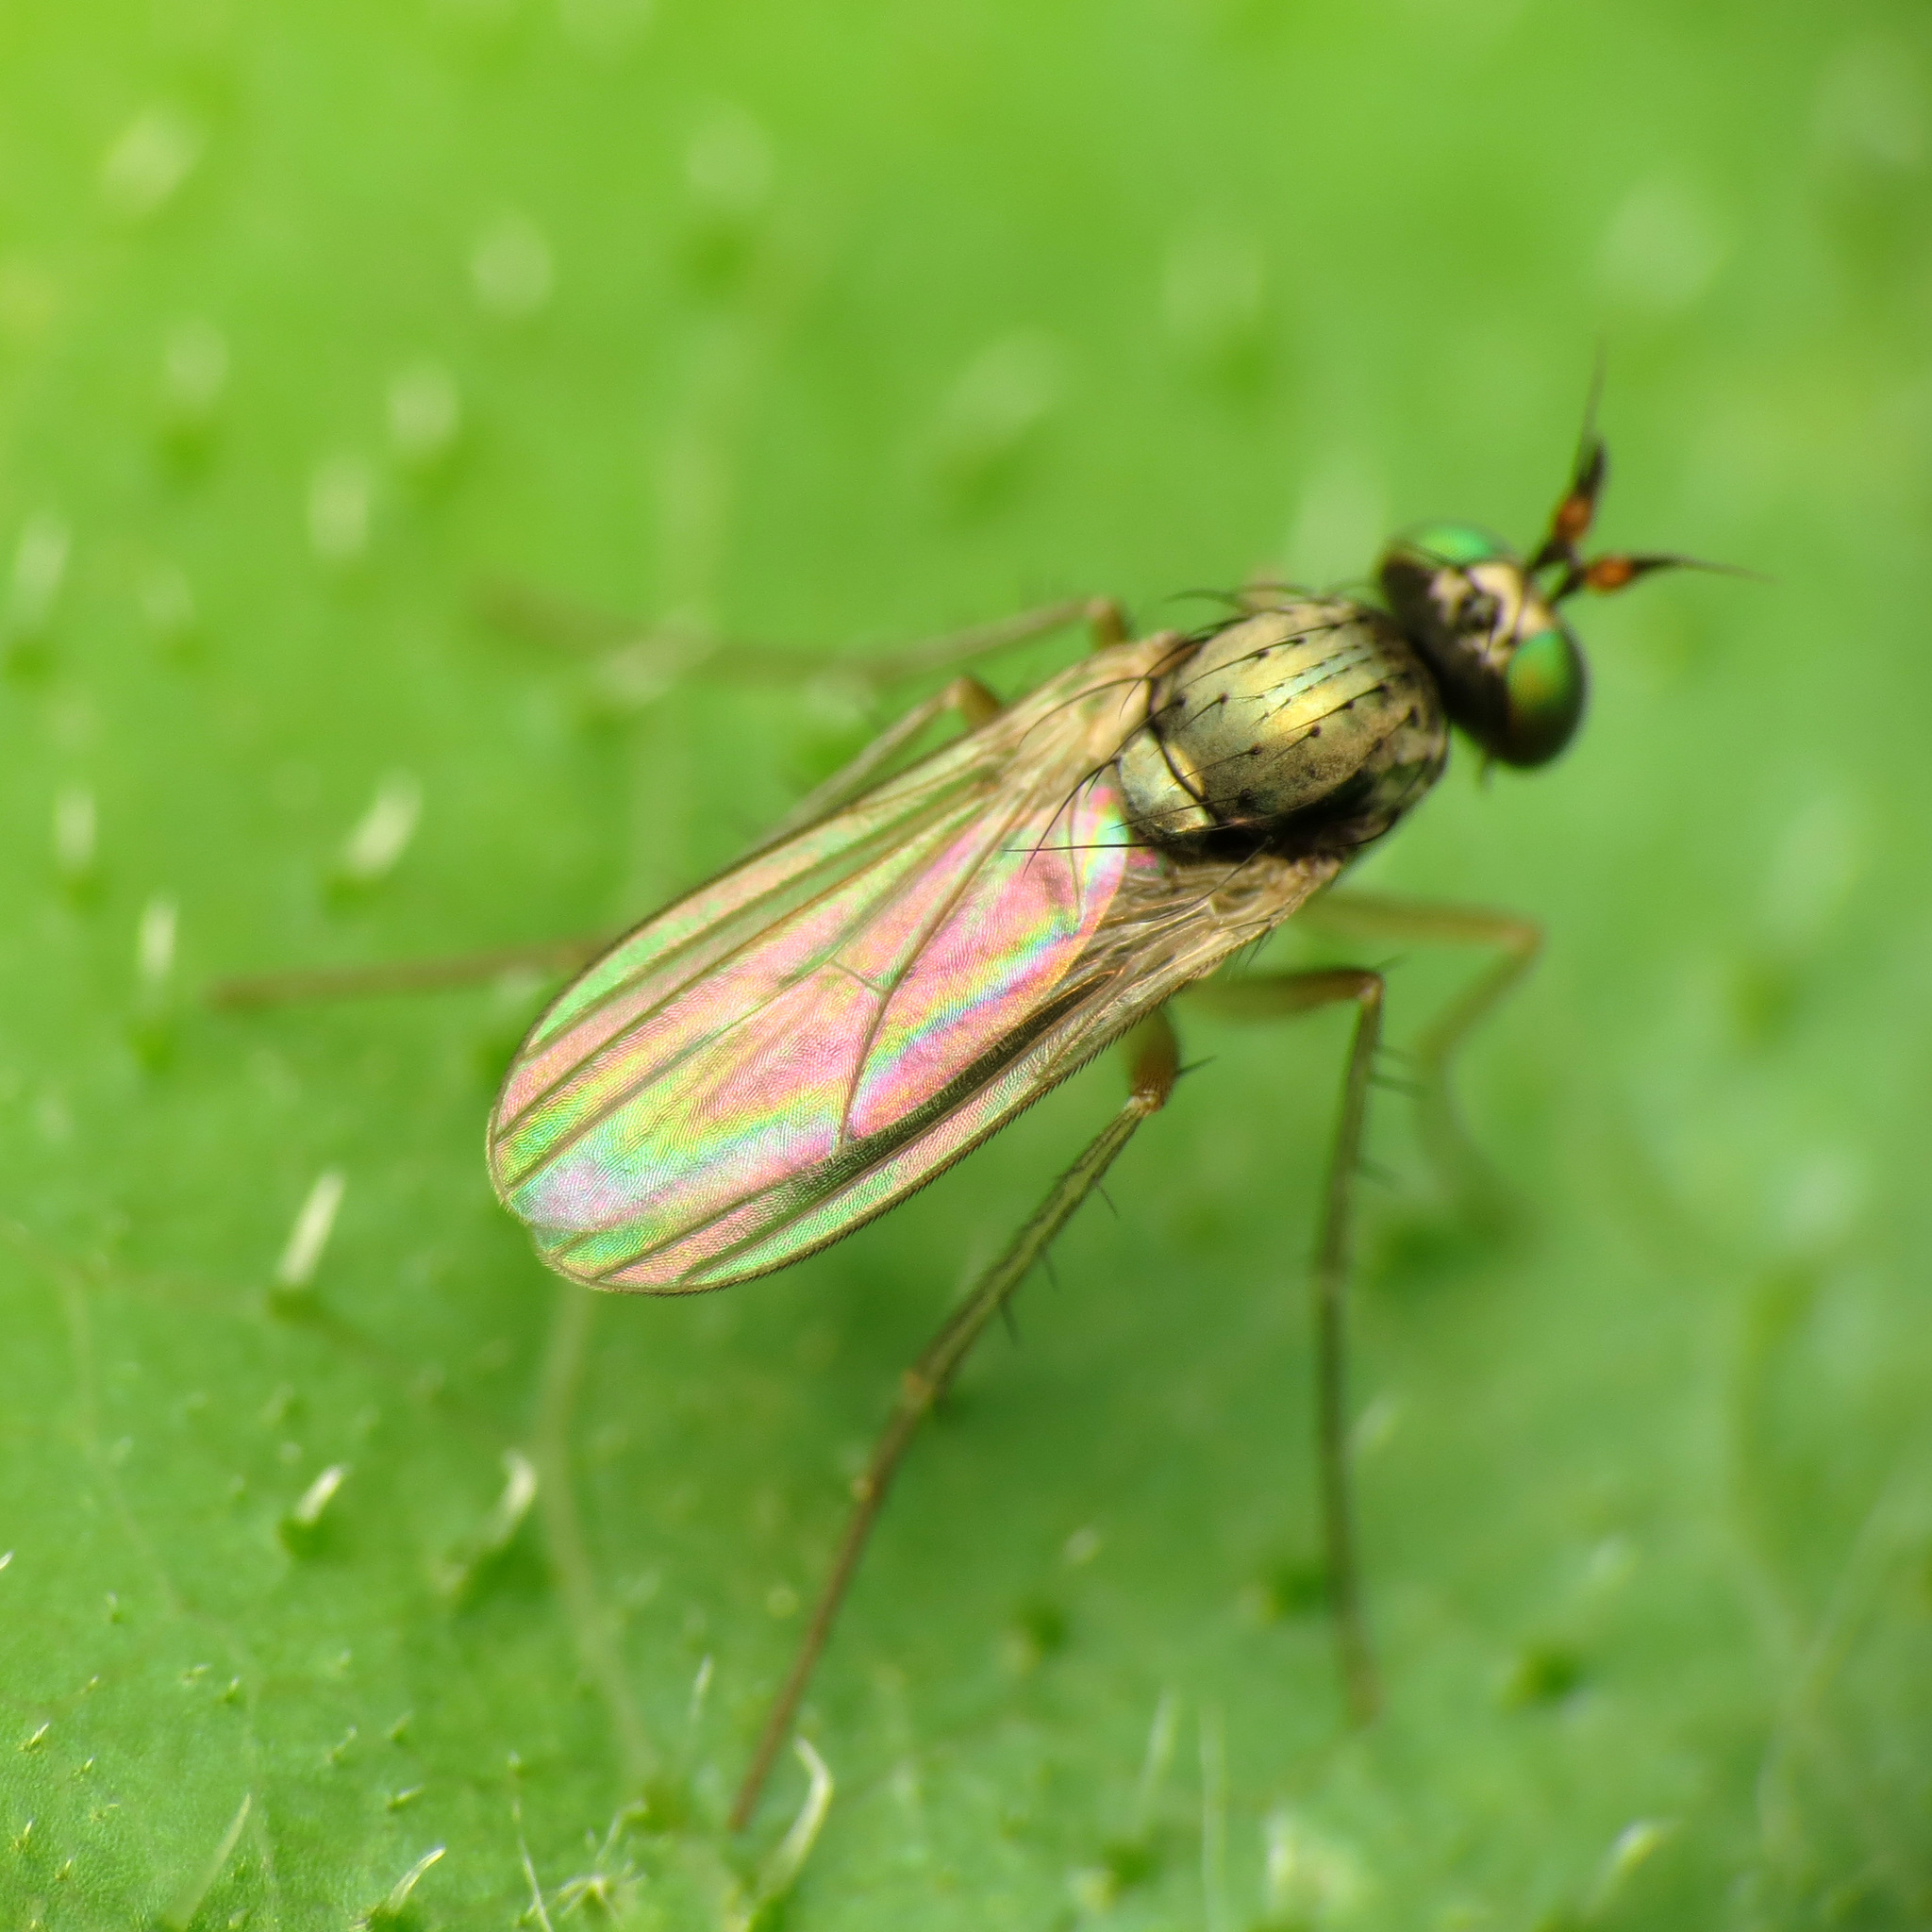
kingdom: Animalia
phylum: Arthropoda
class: Insecta
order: Diptera
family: Dolichopodidae
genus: Gymnopternus
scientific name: Gymnopternus opacus
